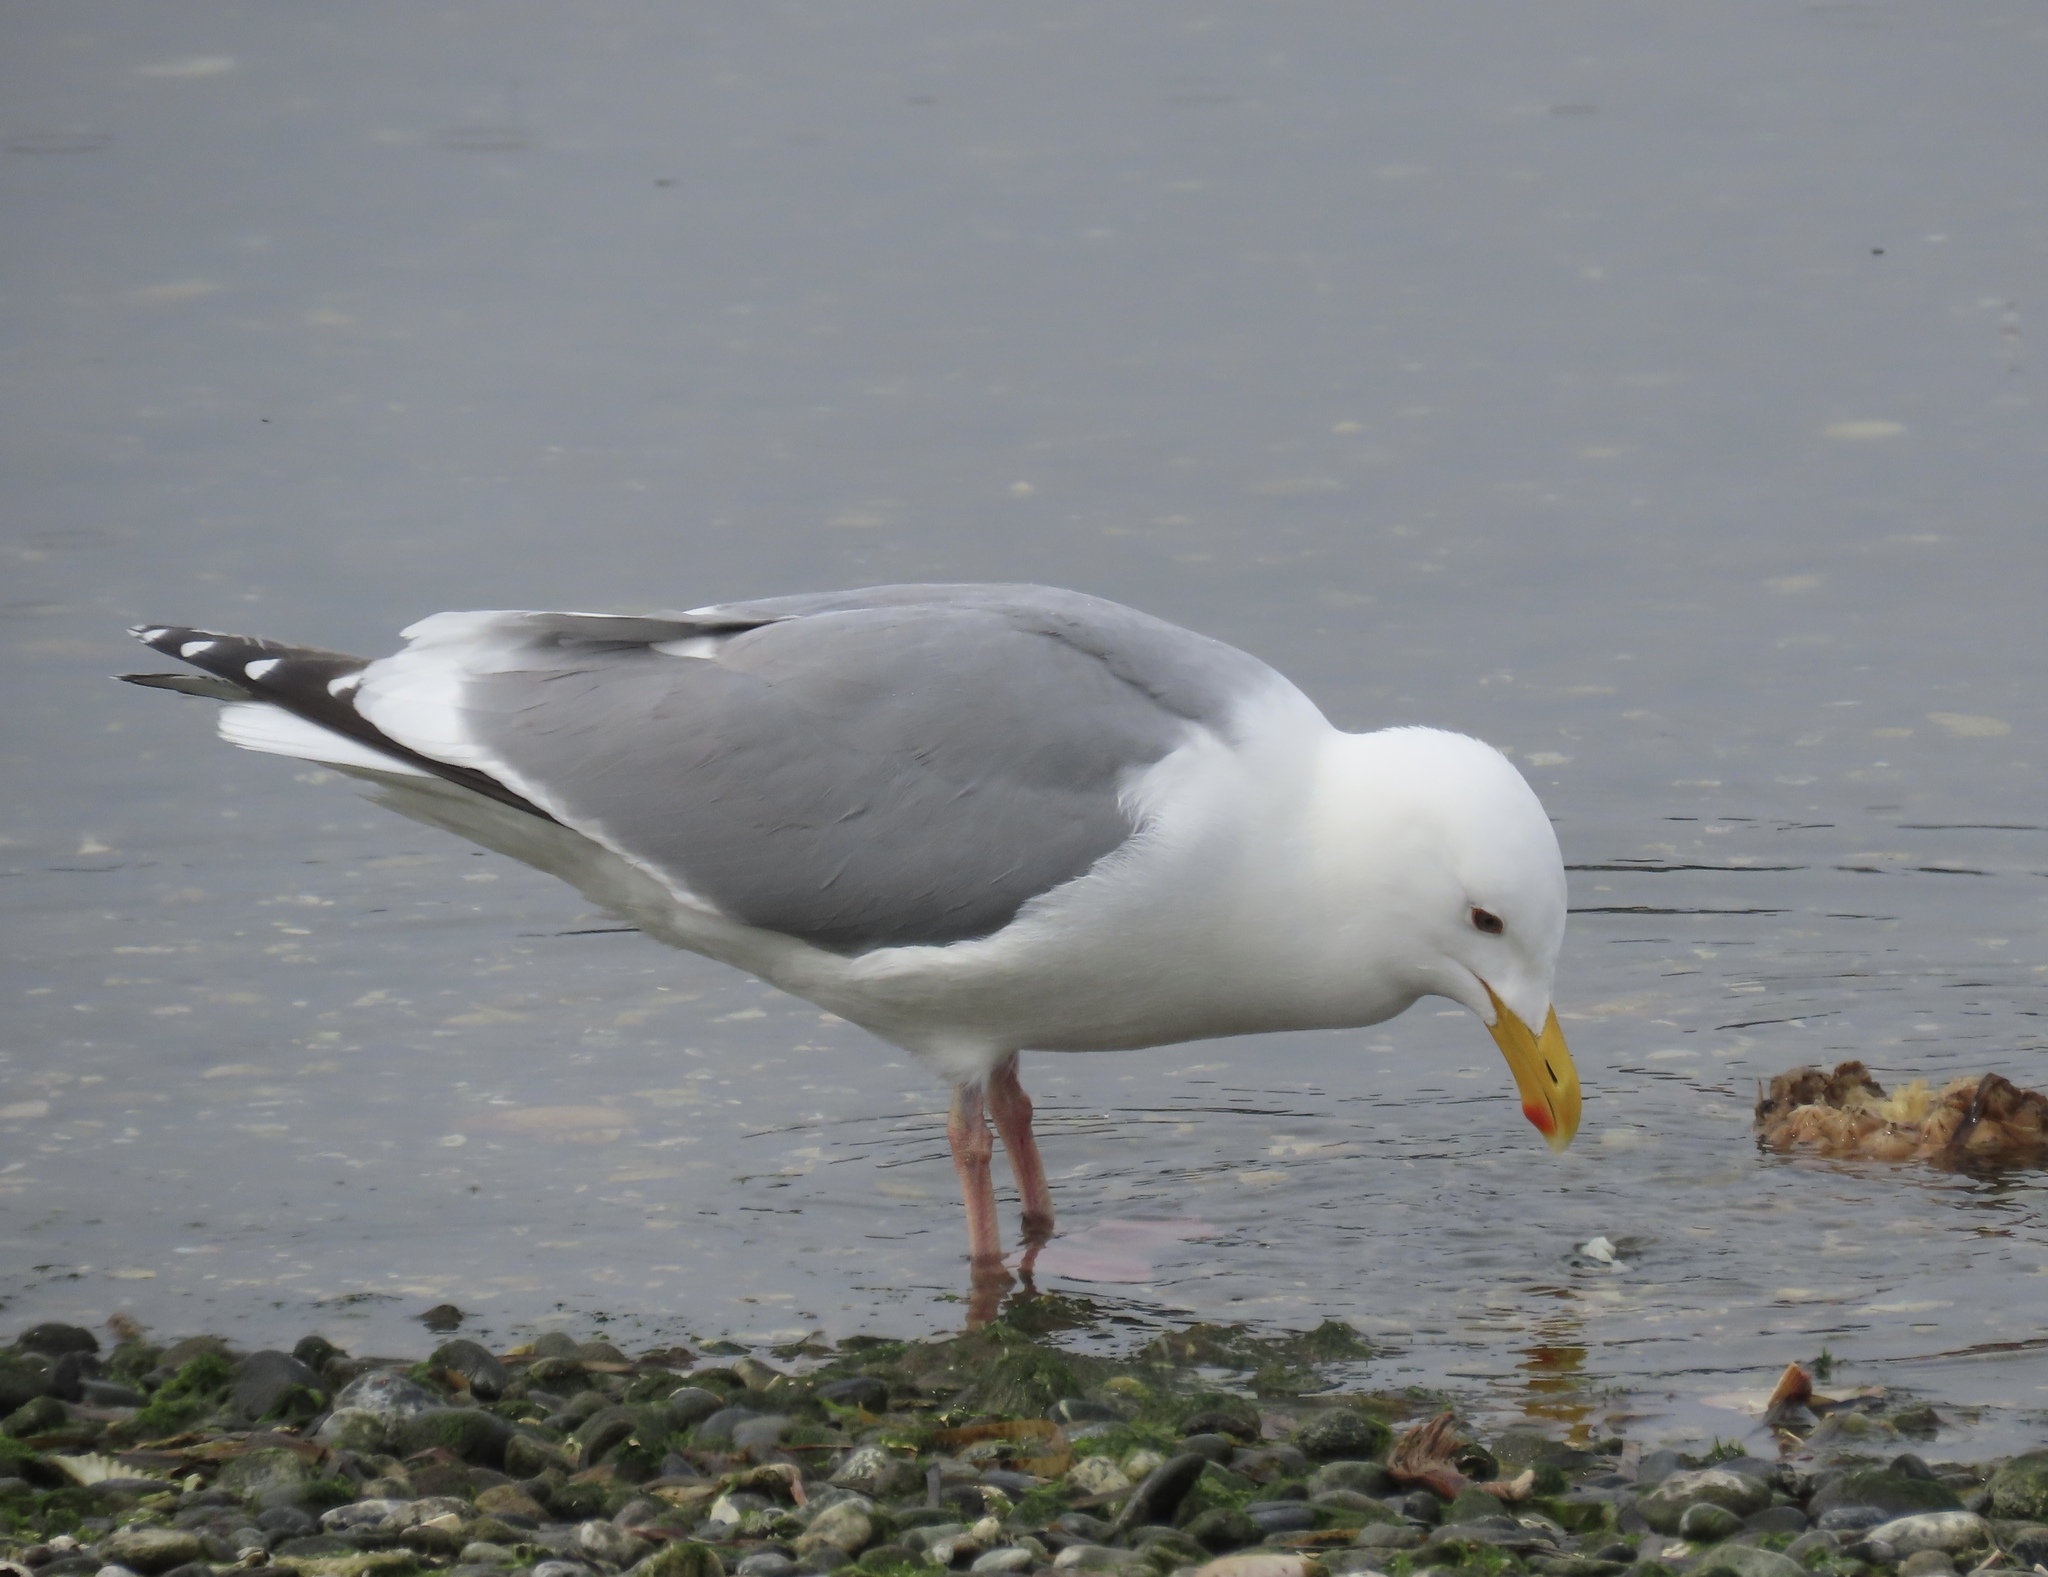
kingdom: Animalia
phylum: Chordata
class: Aves
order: Charadriiformes
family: Laridae
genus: Larus
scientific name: Larus
